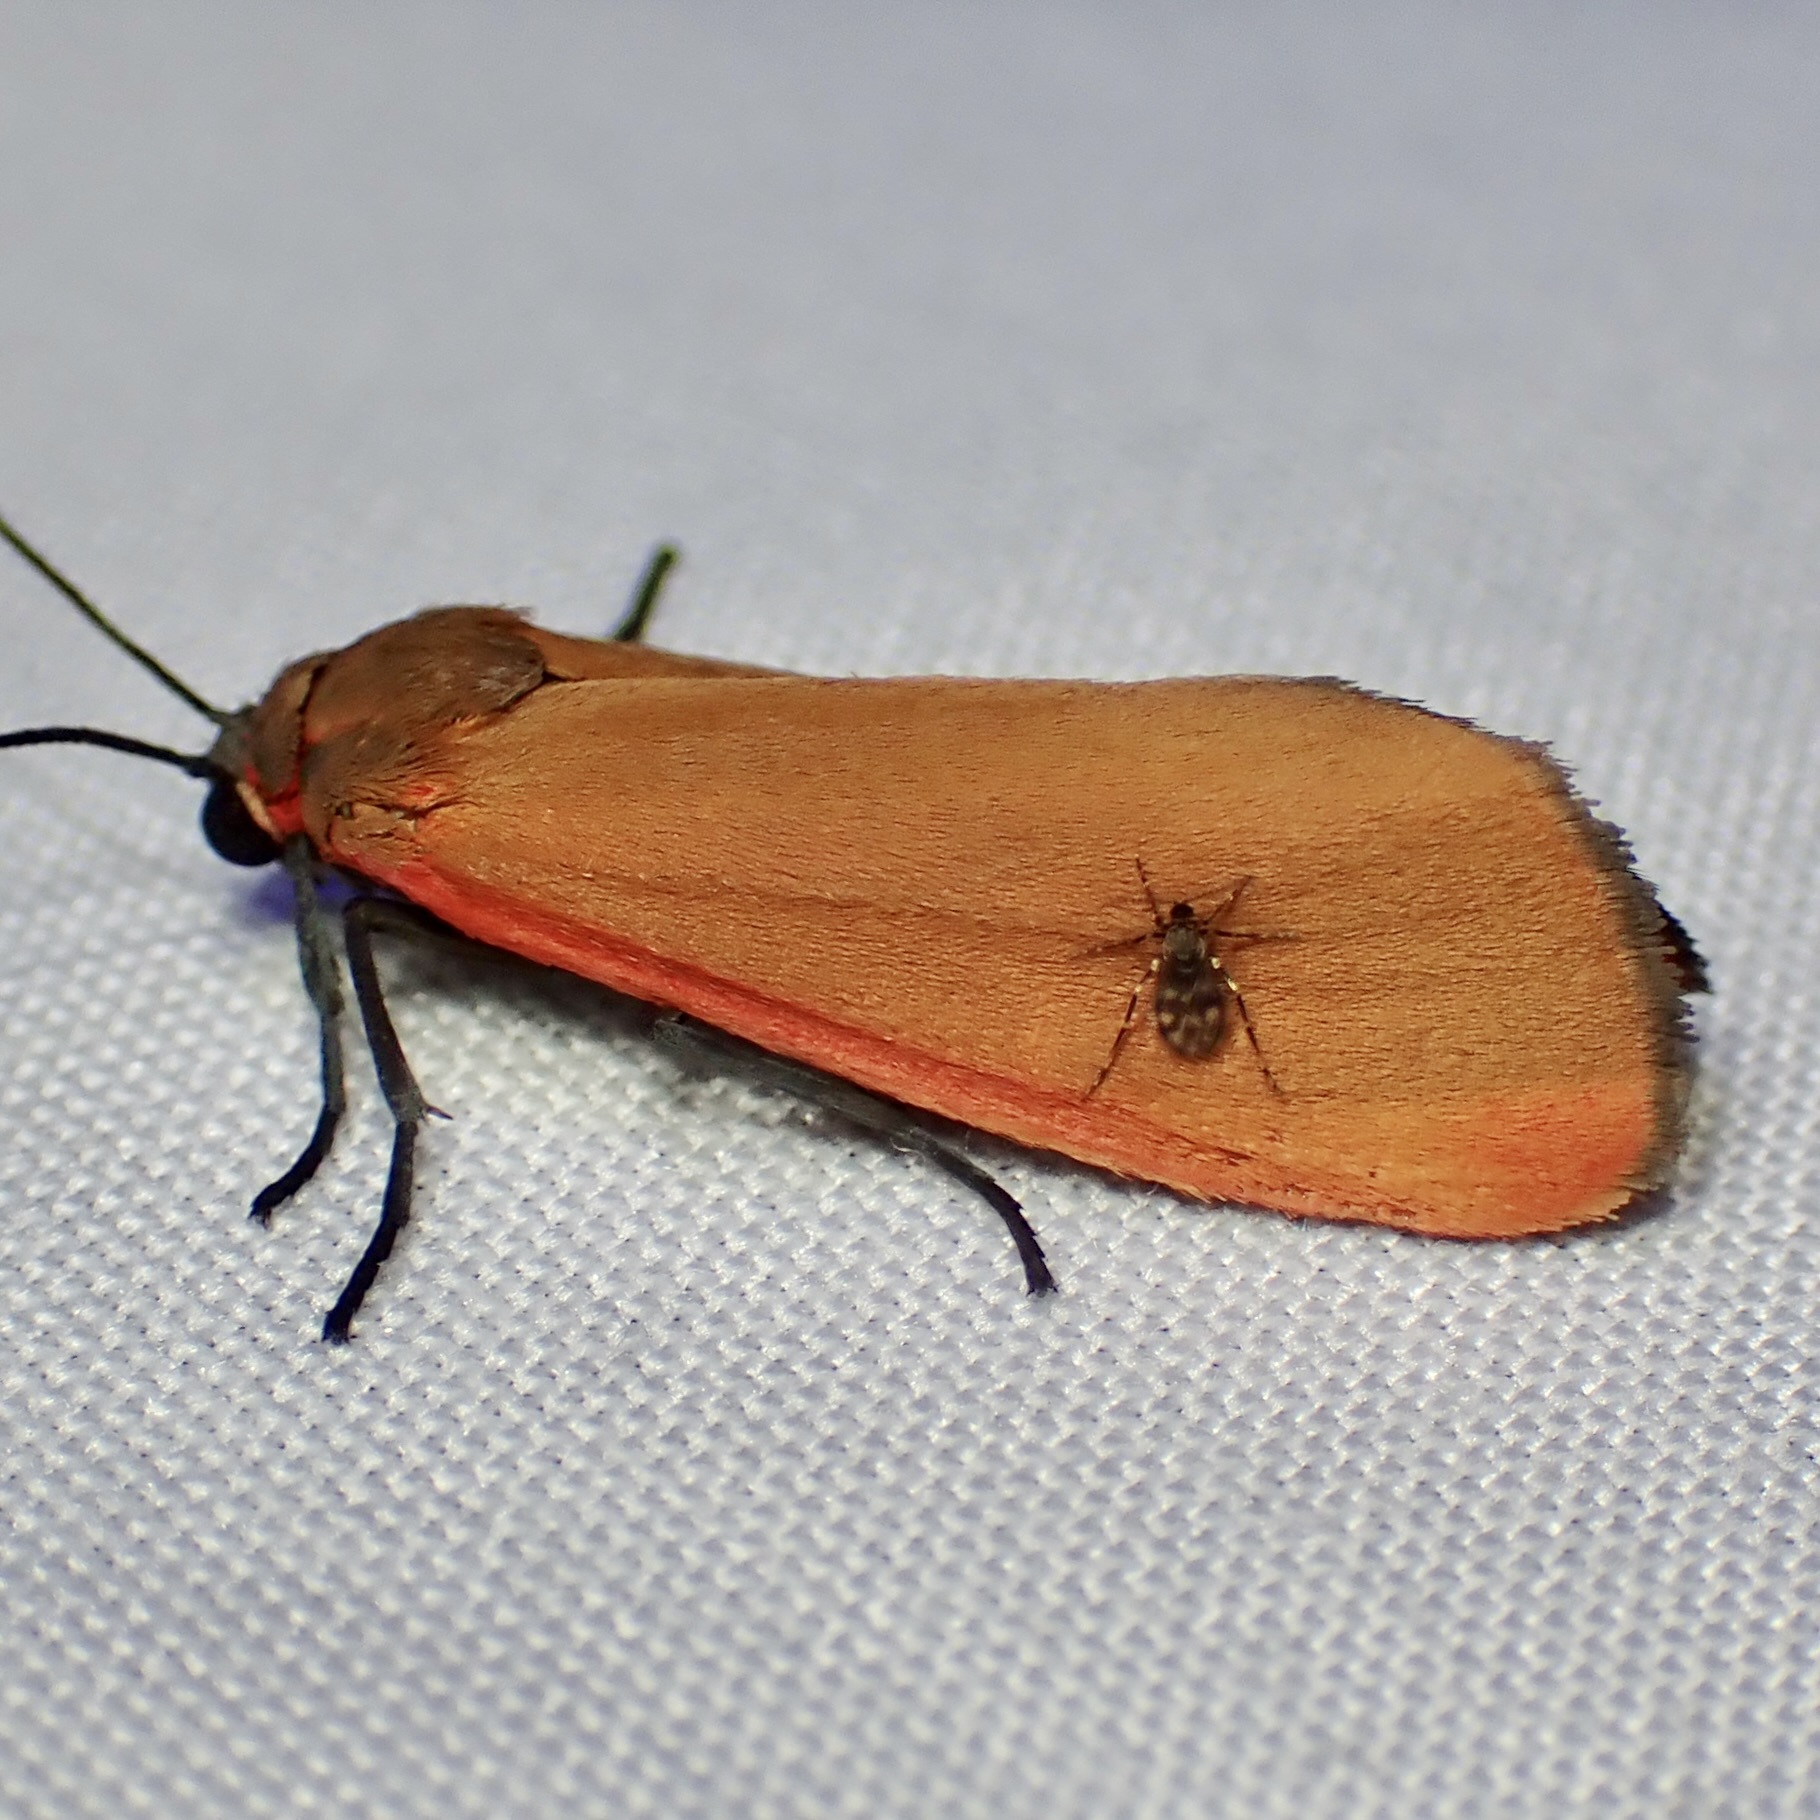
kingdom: Animalia
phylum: Arthropoda
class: Insecta
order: Lepidoptera
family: Erebidae
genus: Virbia
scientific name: Virbia ostenta
